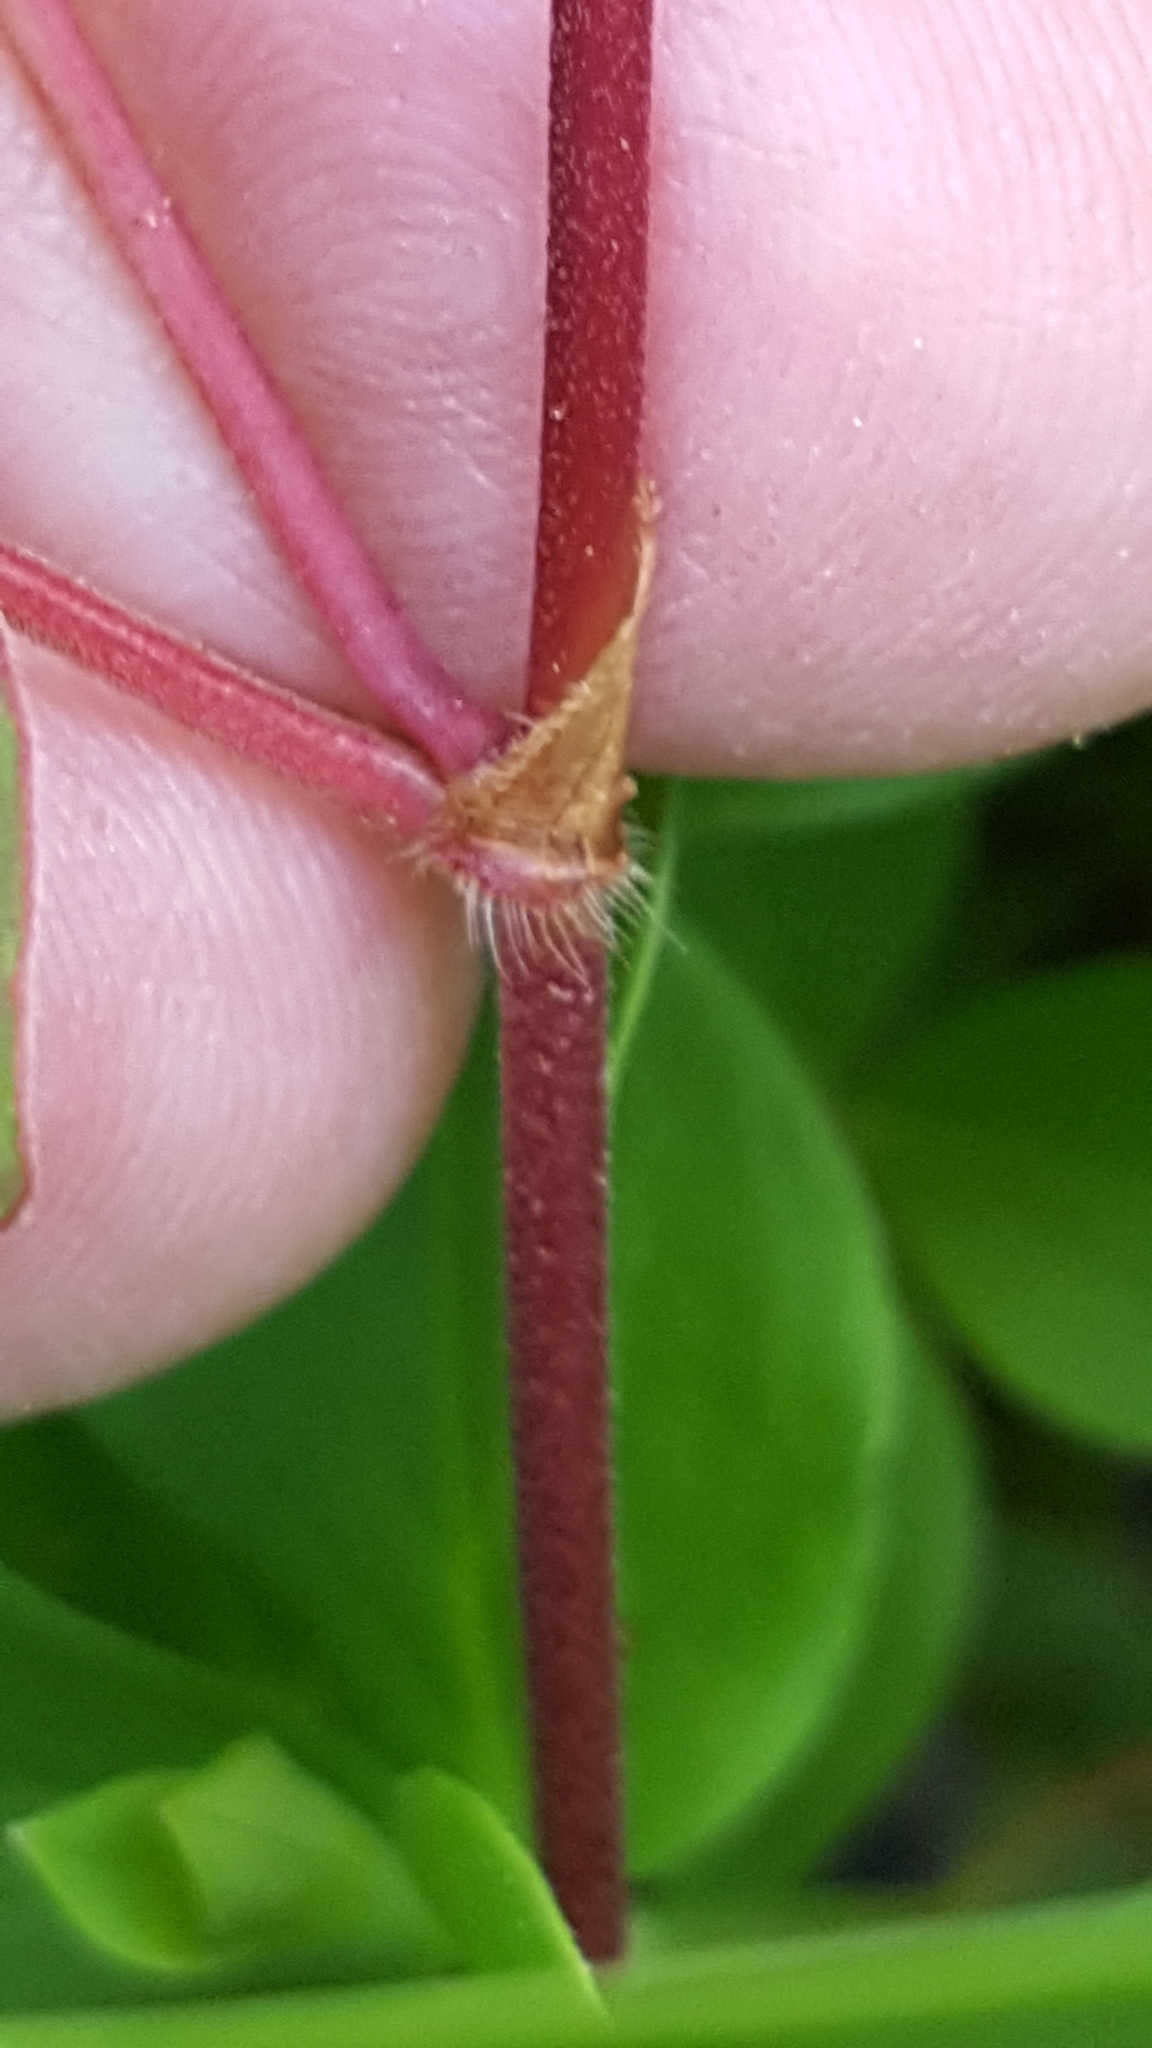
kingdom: Plantae
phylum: Tracheophyta
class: Magnoliopsida
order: Caryophyllales
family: Polygonaceae
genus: Parogonum
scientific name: Parogonum ciliinode
